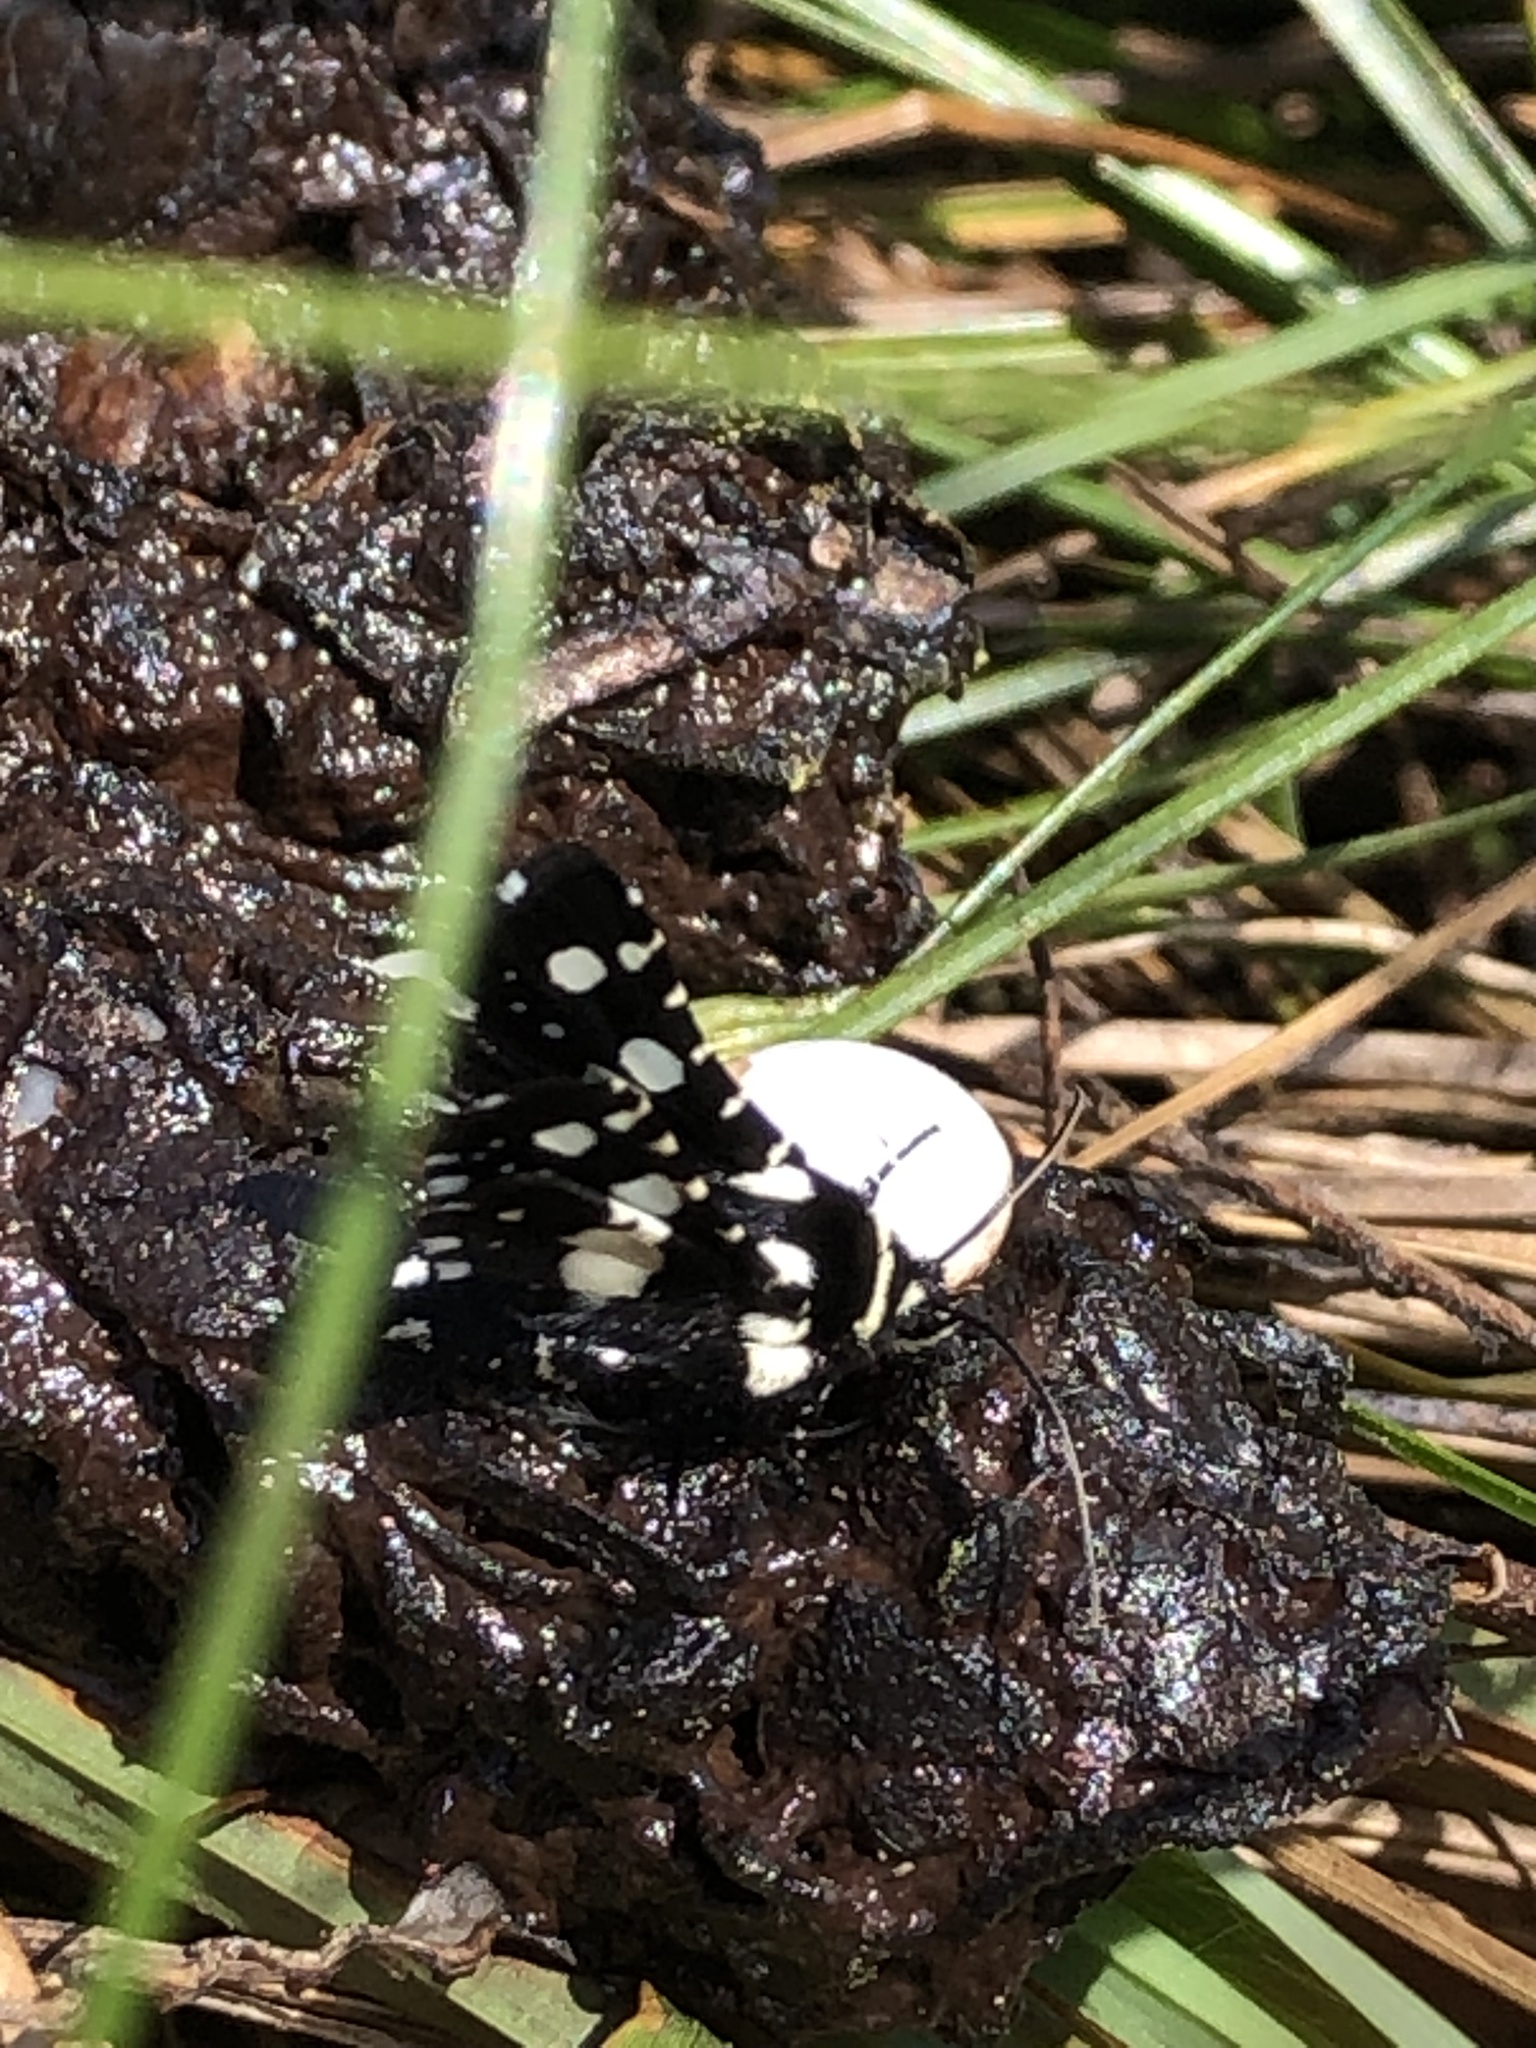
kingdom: Animalia
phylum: Arthropoda
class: Insecta
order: Lepidoptera
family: Thyrididae
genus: Pseudothyris
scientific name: Pseudothyris sepulchralis
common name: Mournful thyris moth
